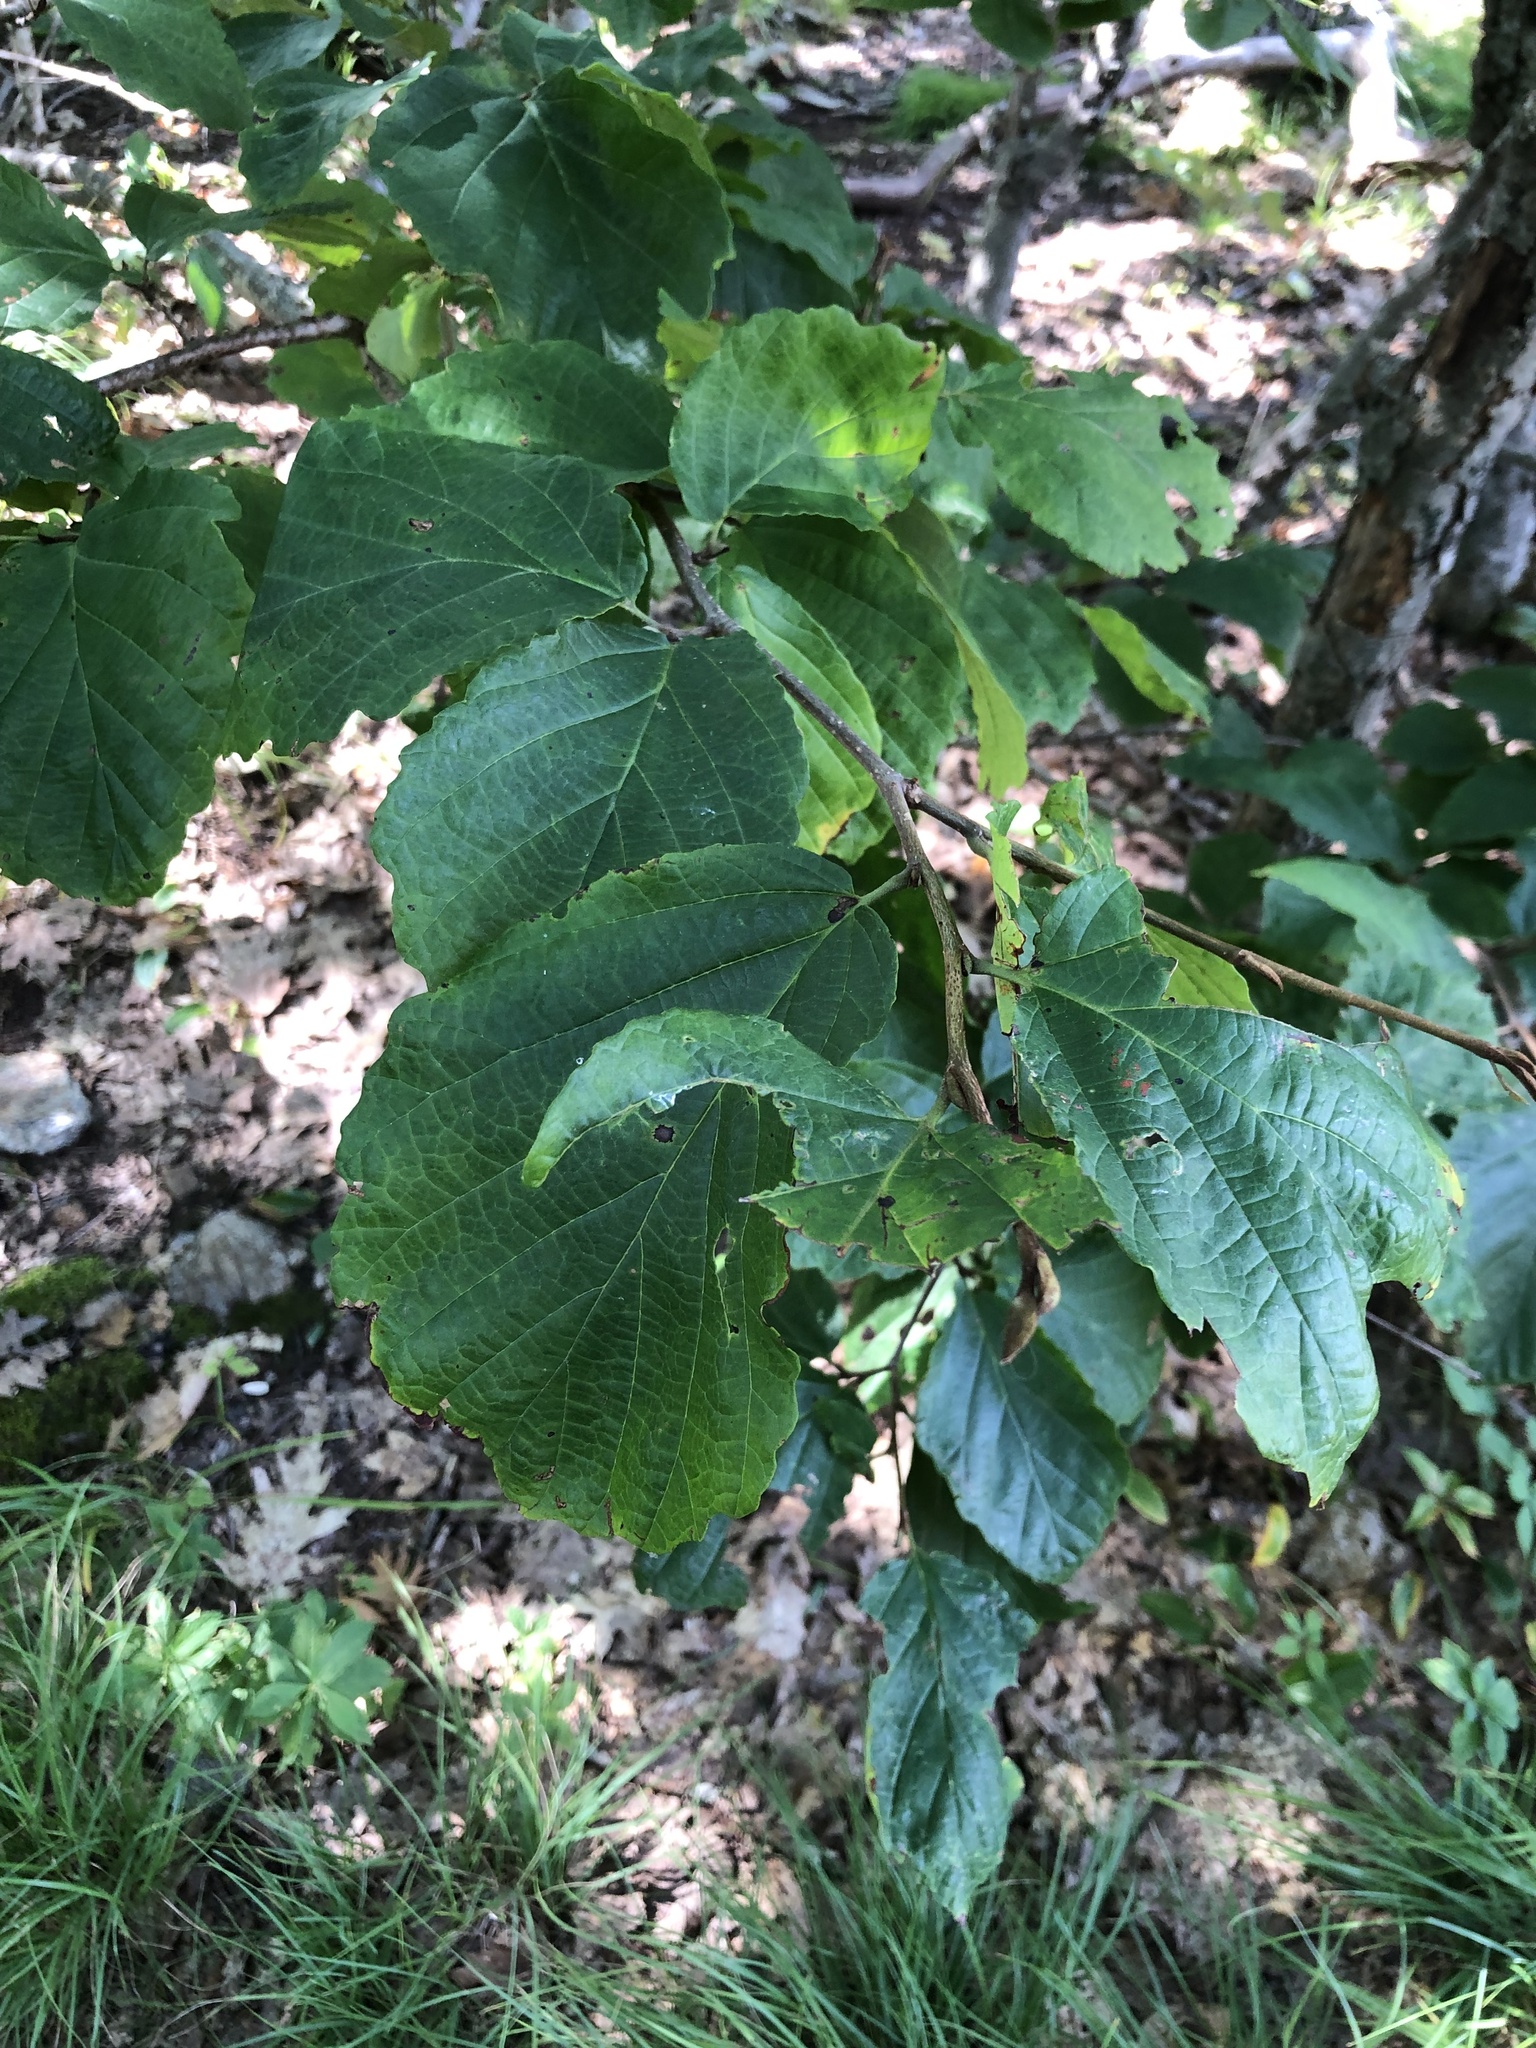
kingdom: Plantae
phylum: Tracheophyta
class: Magnoliopsida
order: Saxifragales
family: Hamamelidaceae
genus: Hamamelis
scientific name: Hamamelis virginiana
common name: Witch-hazel
